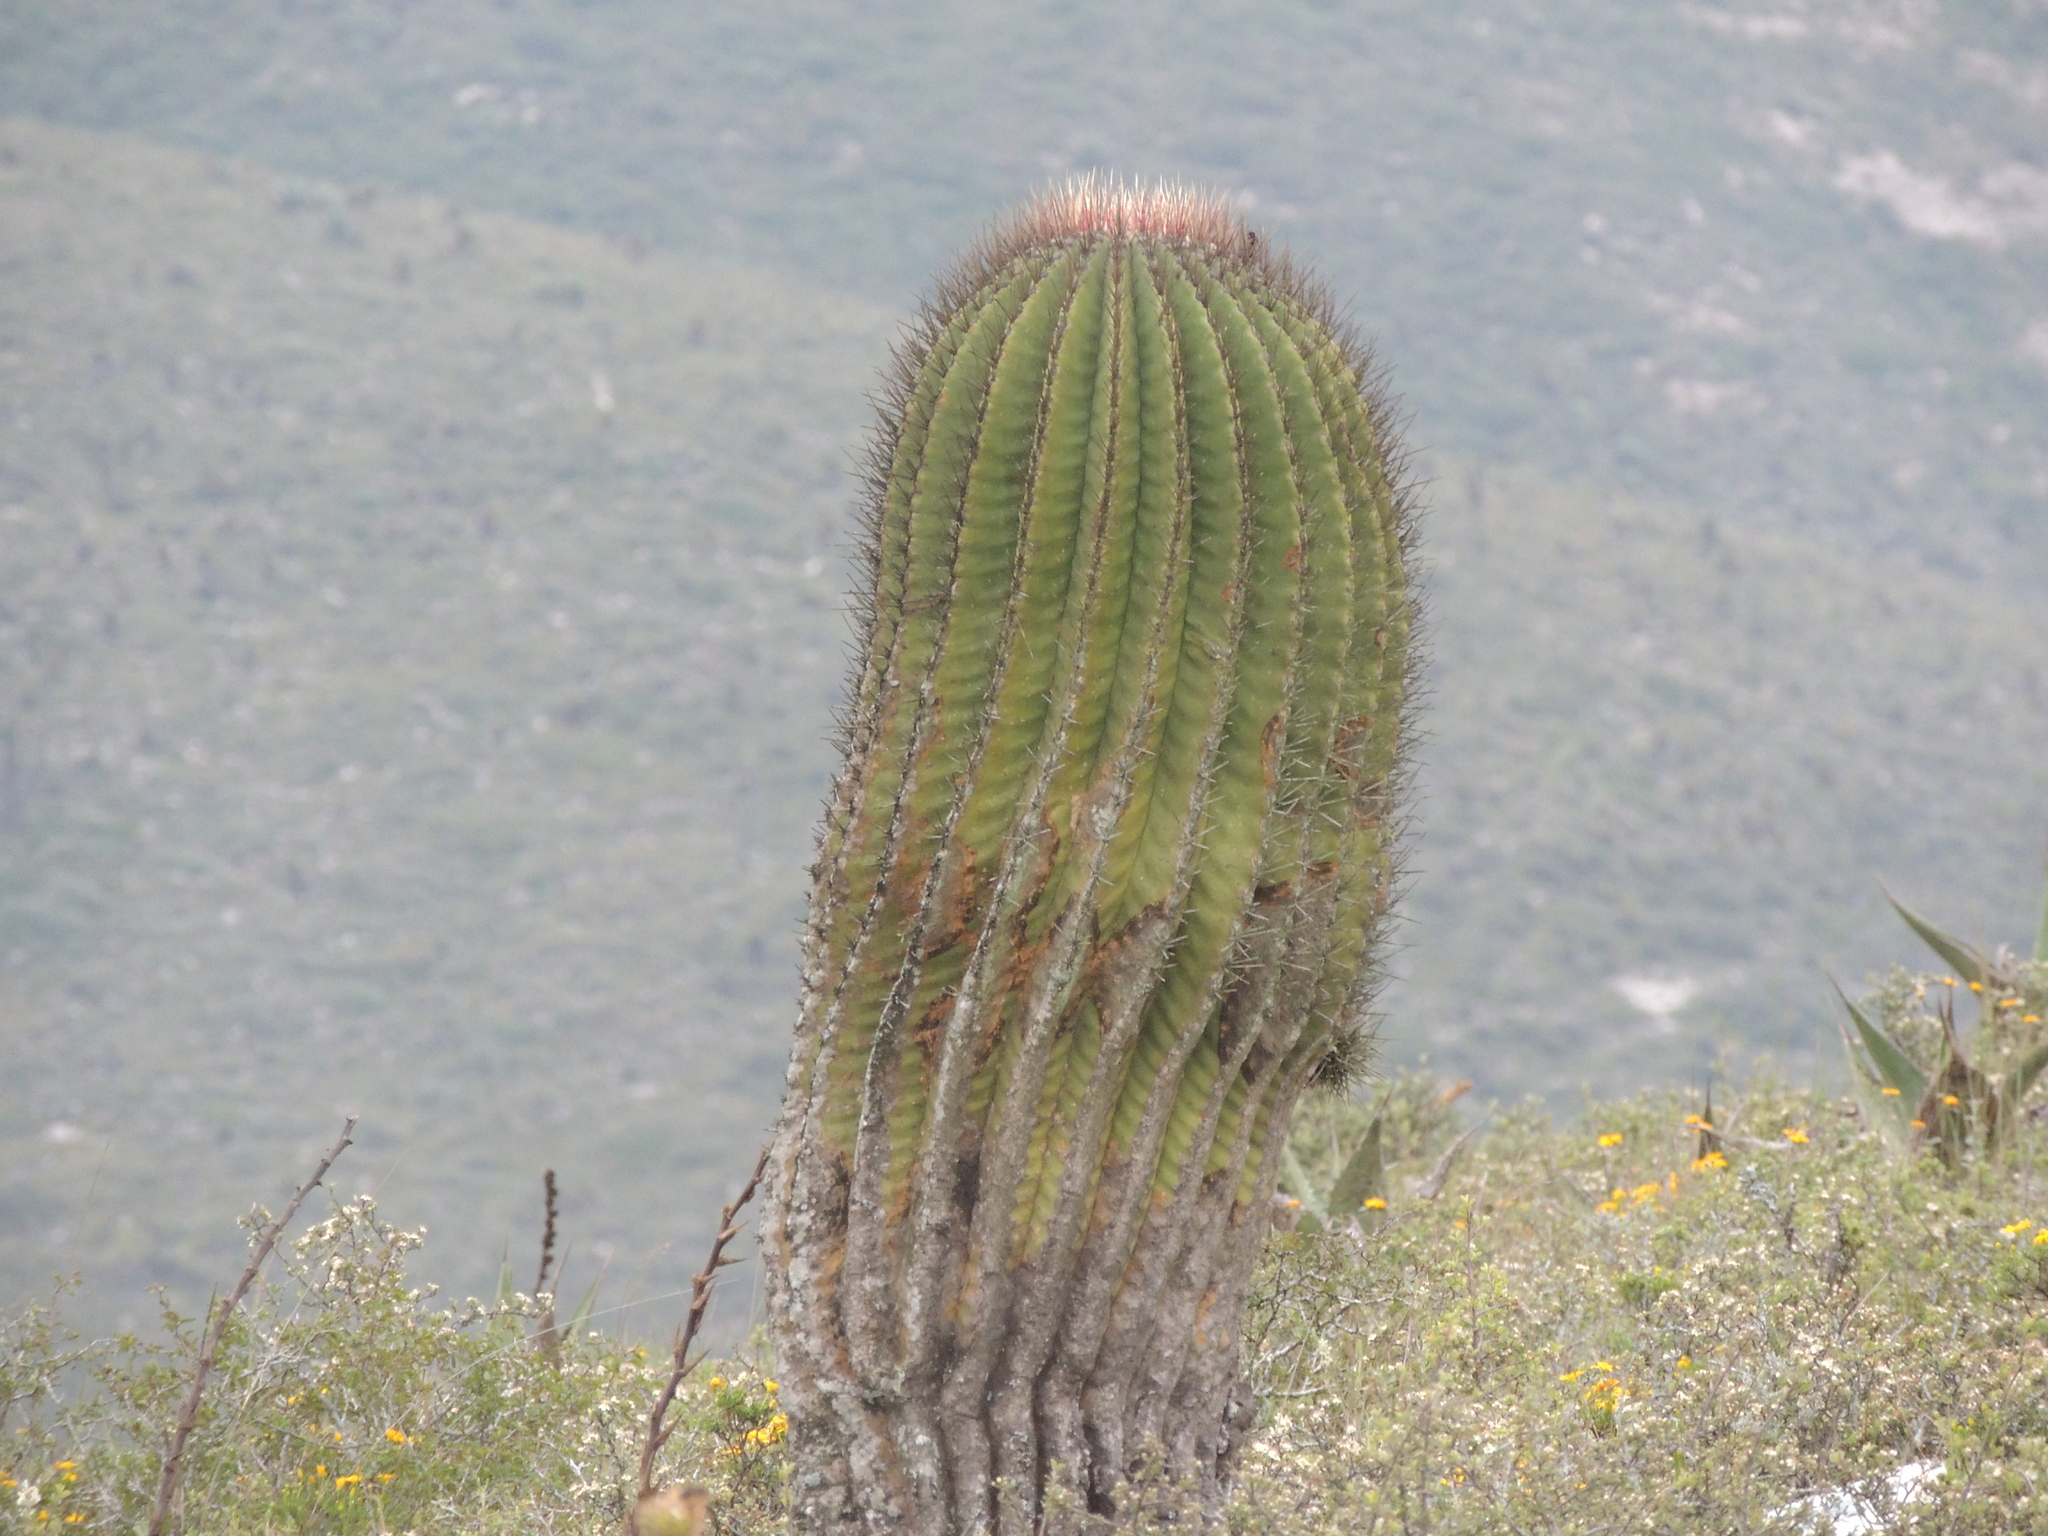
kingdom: Plantae
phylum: Tracheophyta
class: Magnoliopsida
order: Caryophyllales
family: Cactaceae
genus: Ferocactus
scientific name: Ferocactus haematacanthus
